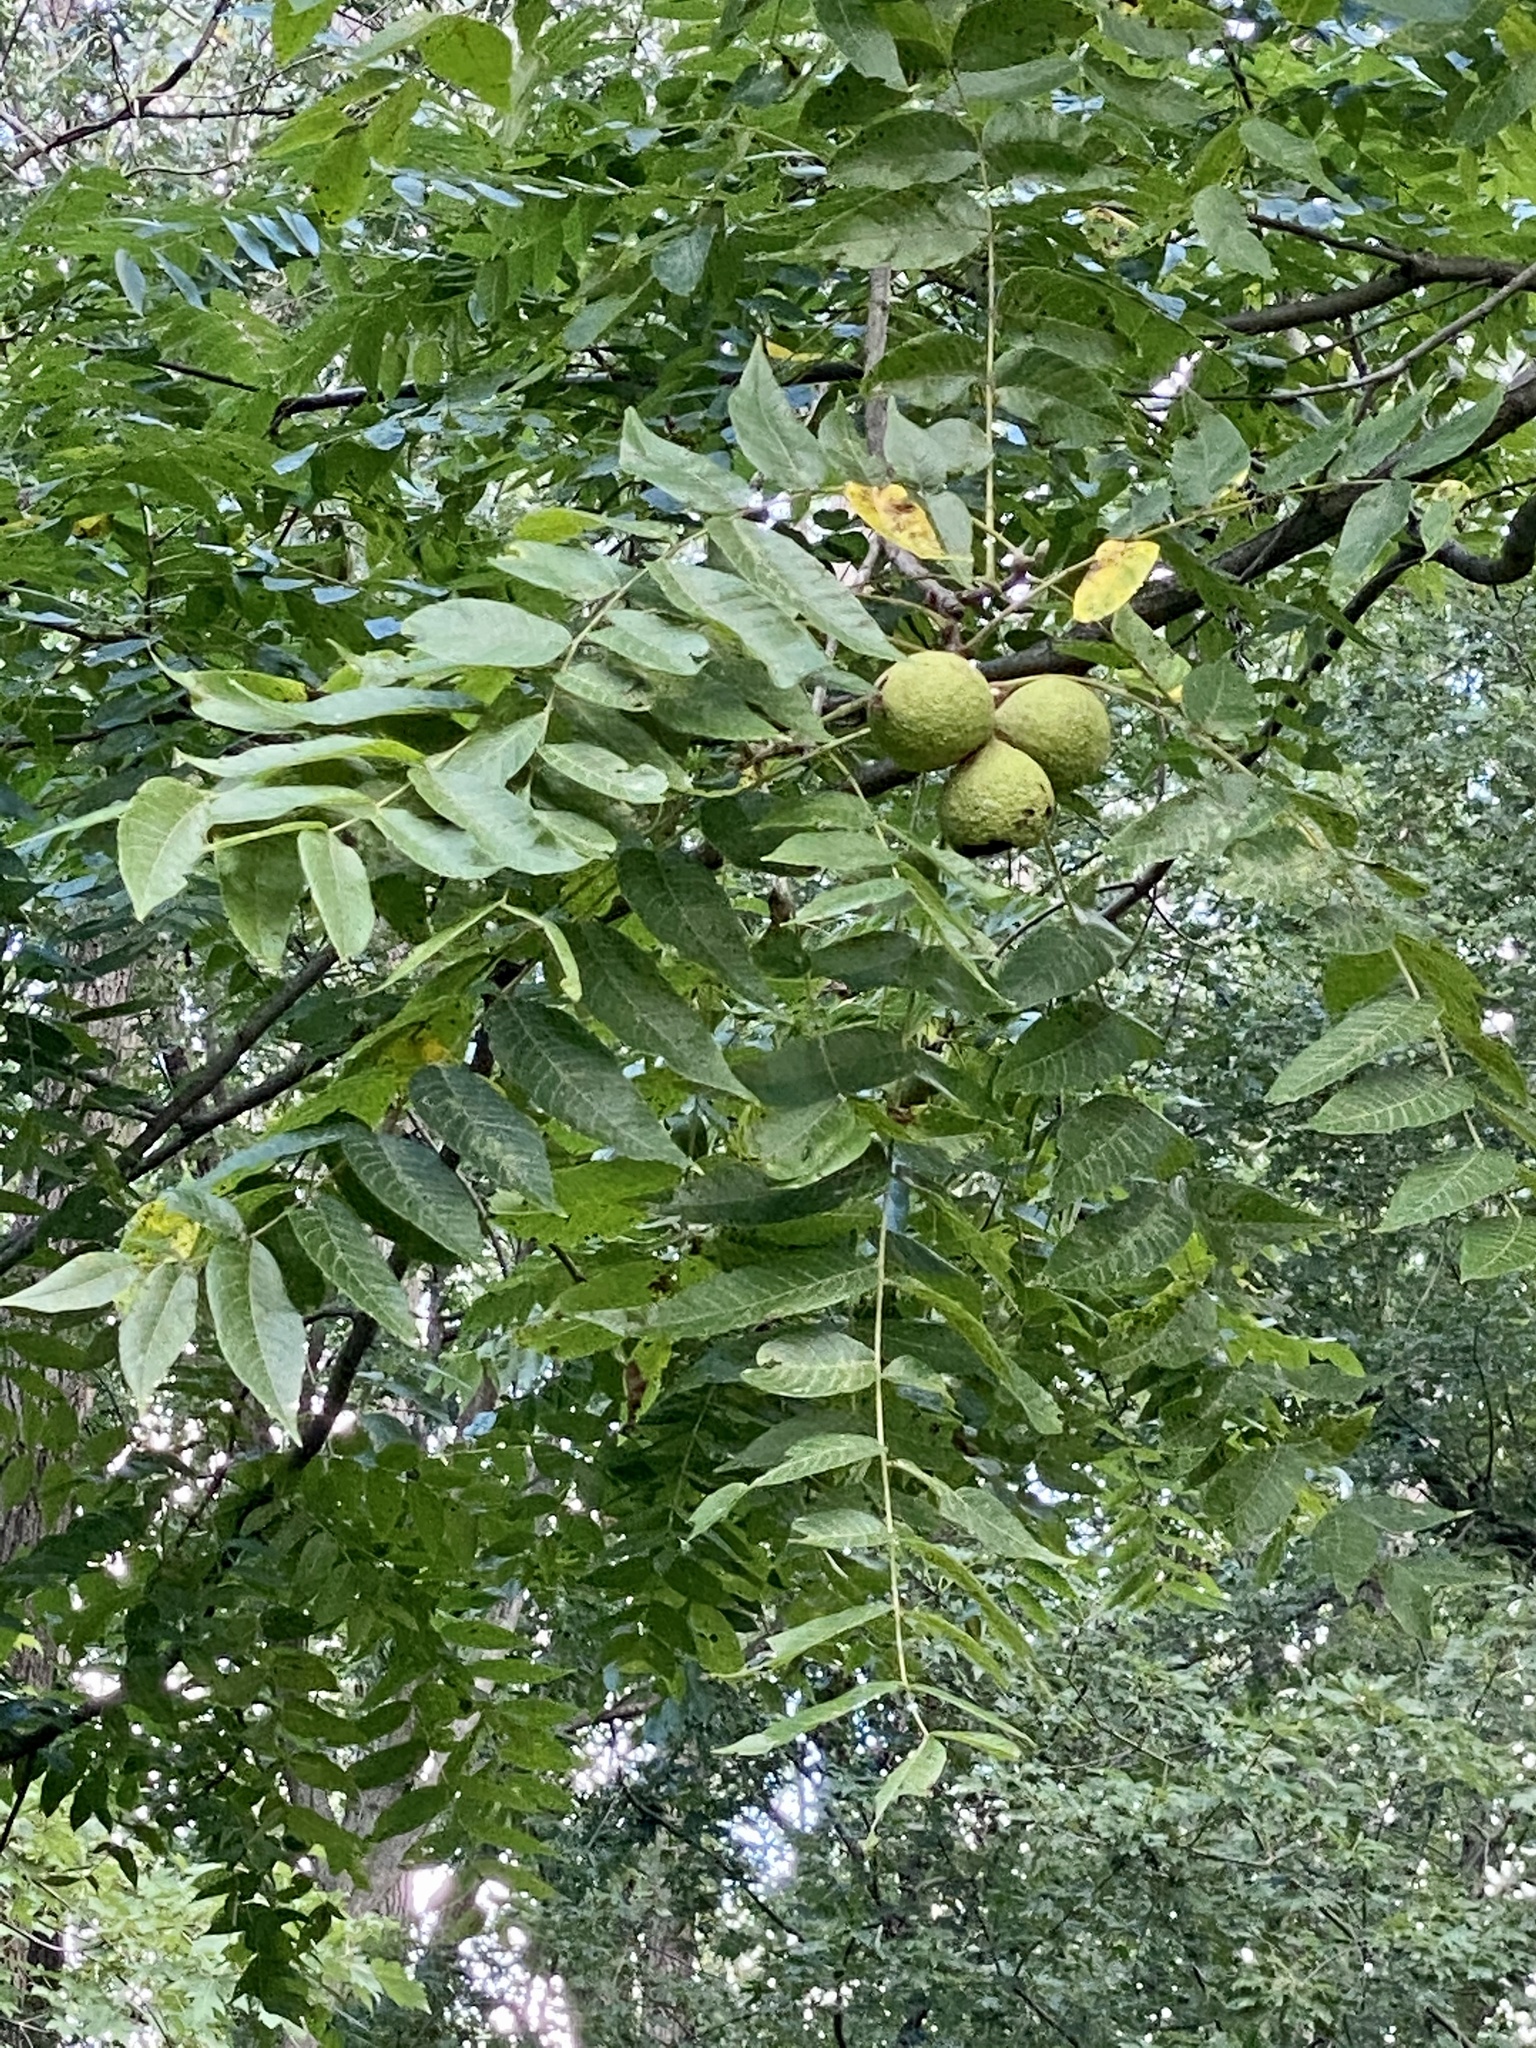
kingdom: Plantae
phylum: Tracheophyta
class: Magnoliopsida
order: Fagales
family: Juglandaceae
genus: Juglans
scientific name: Juglans nigra
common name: Black walnut
